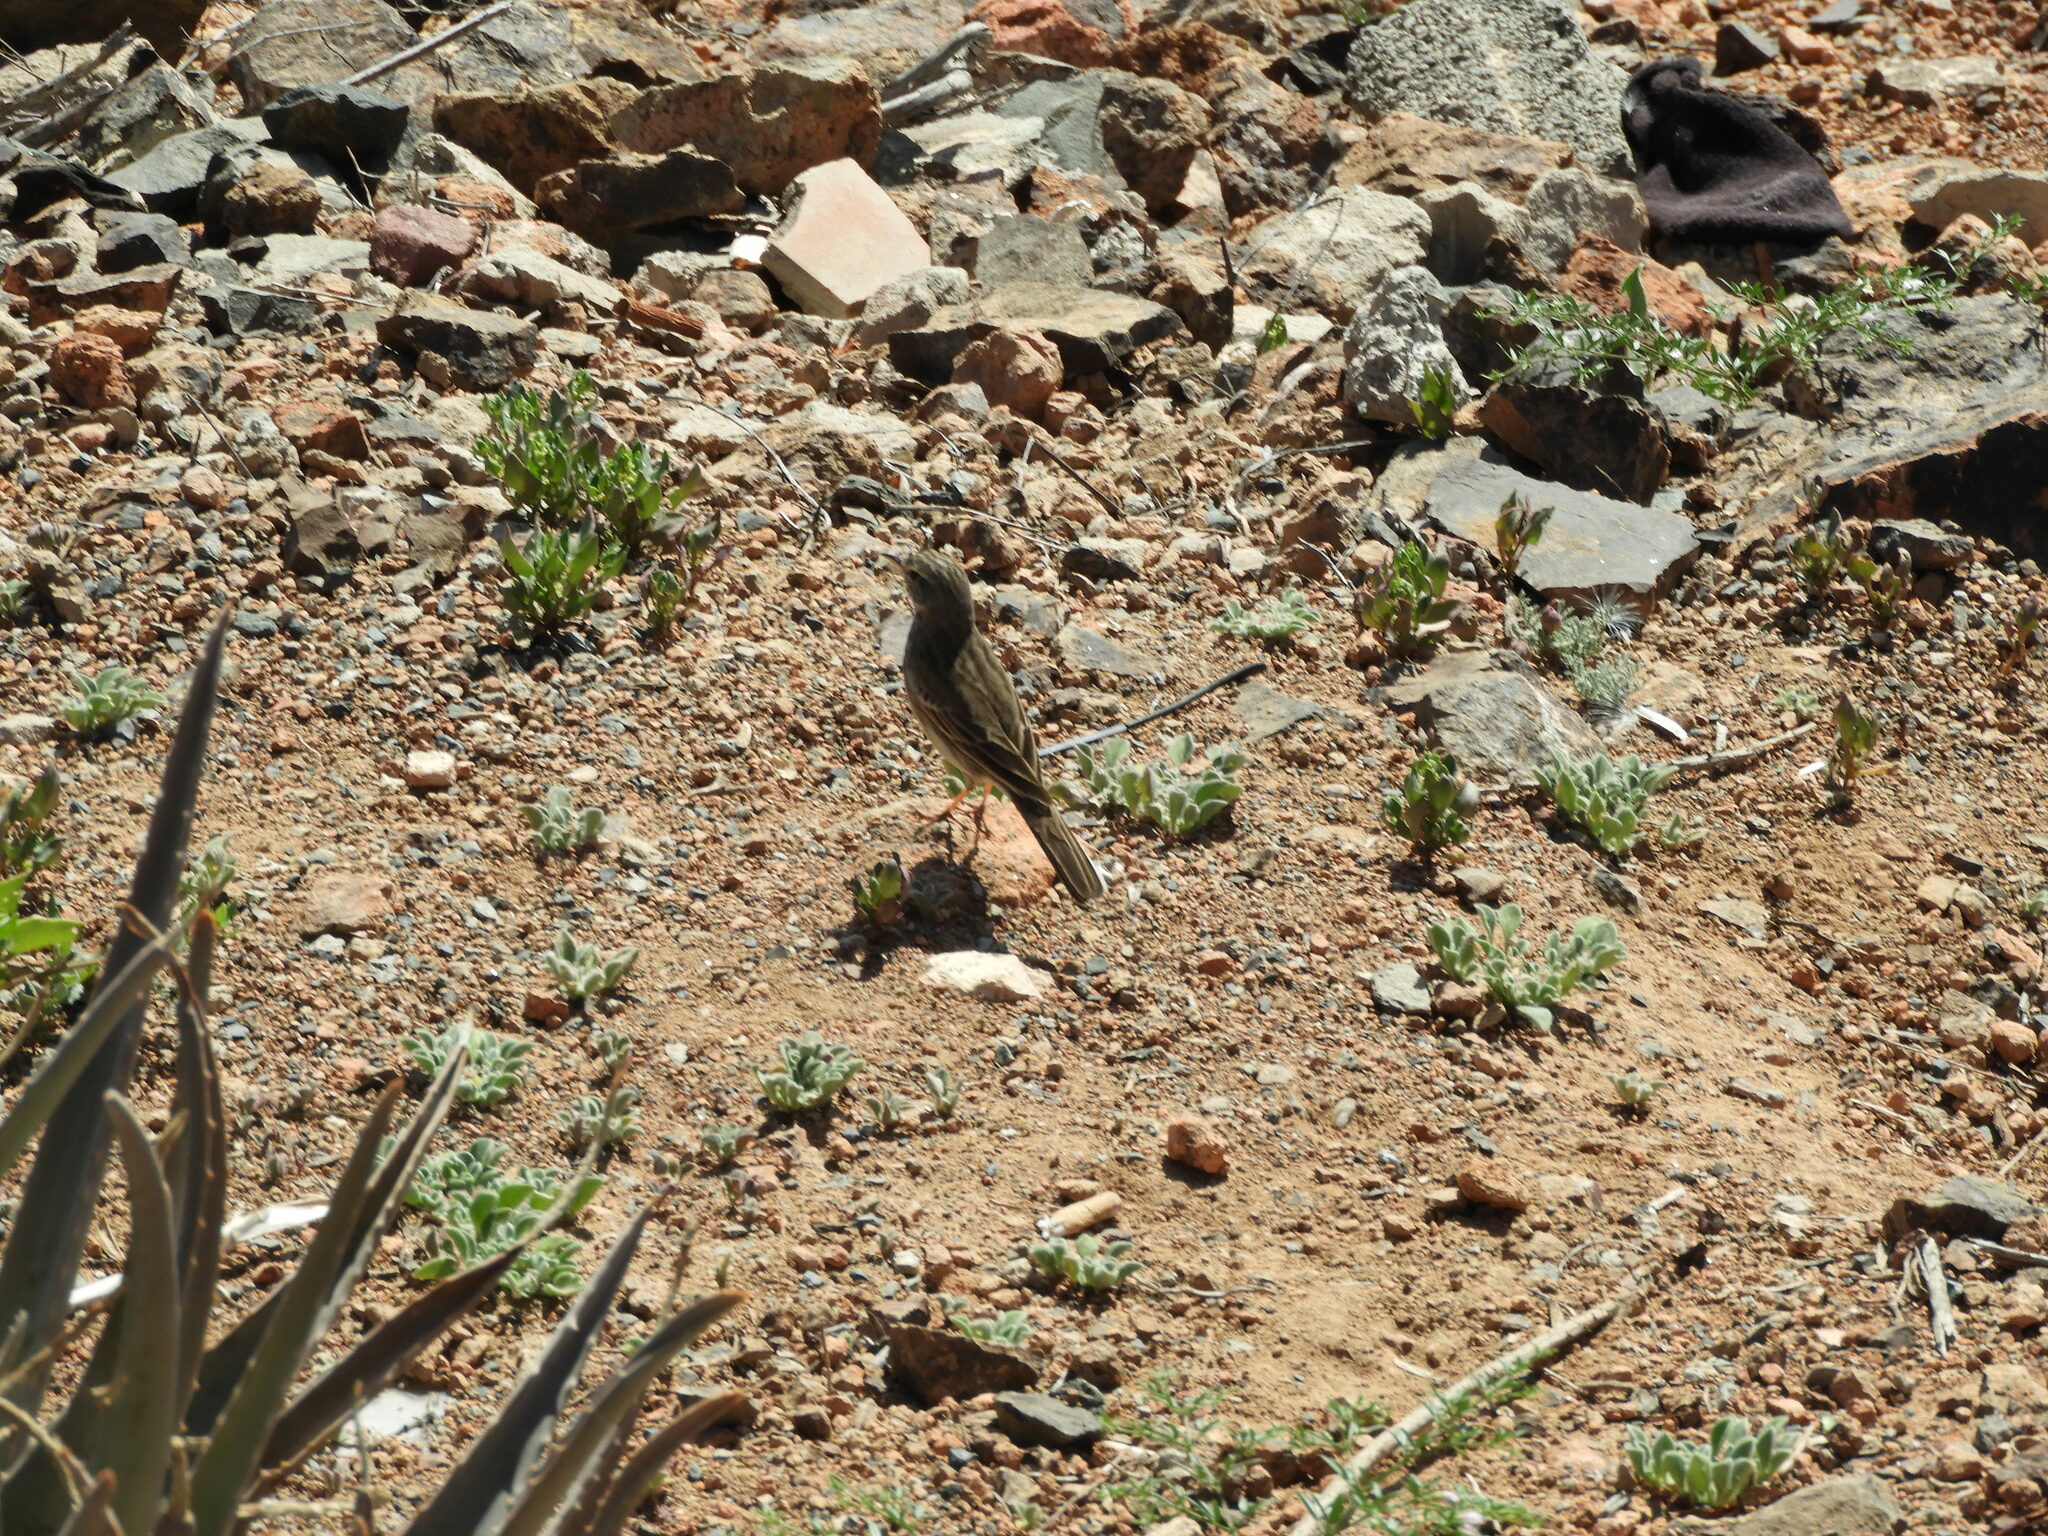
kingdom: Animalia
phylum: Chordata
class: Aves
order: Passeriformes
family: Motacillidae
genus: Anthus
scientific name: Anthus berthelotii
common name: Berthelot's pipit
